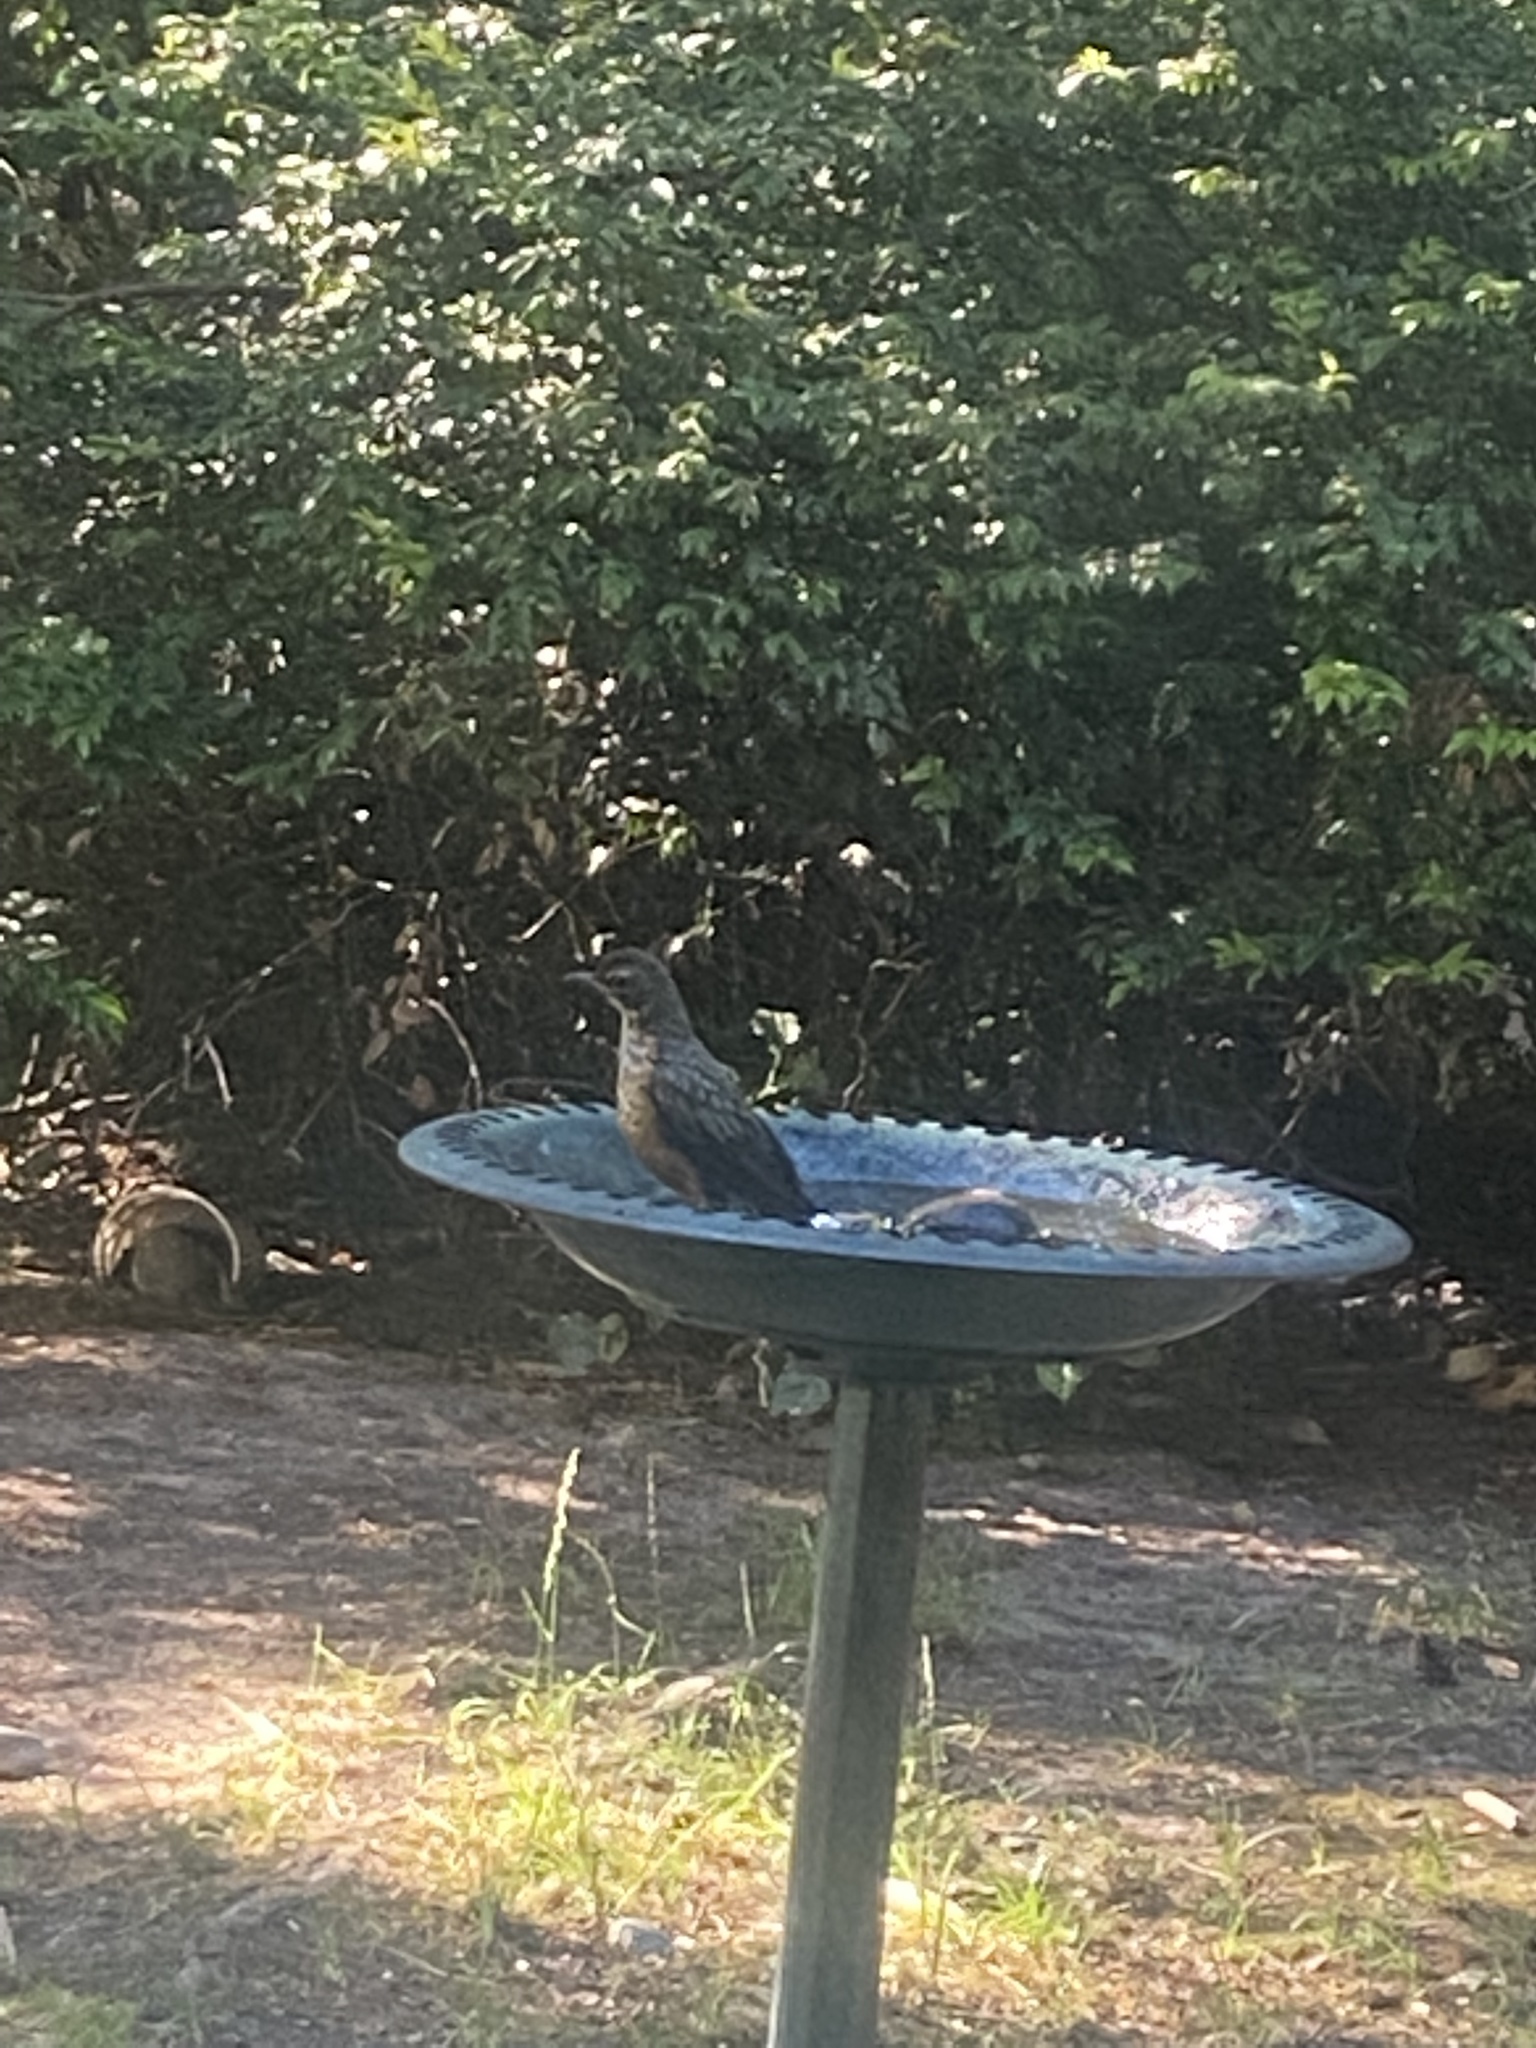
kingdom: Animalia
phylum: Chordata
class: Aves
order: Passeriformes
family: Turdidae
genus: Turdus
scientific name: Turdus migratorius
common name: American robin
